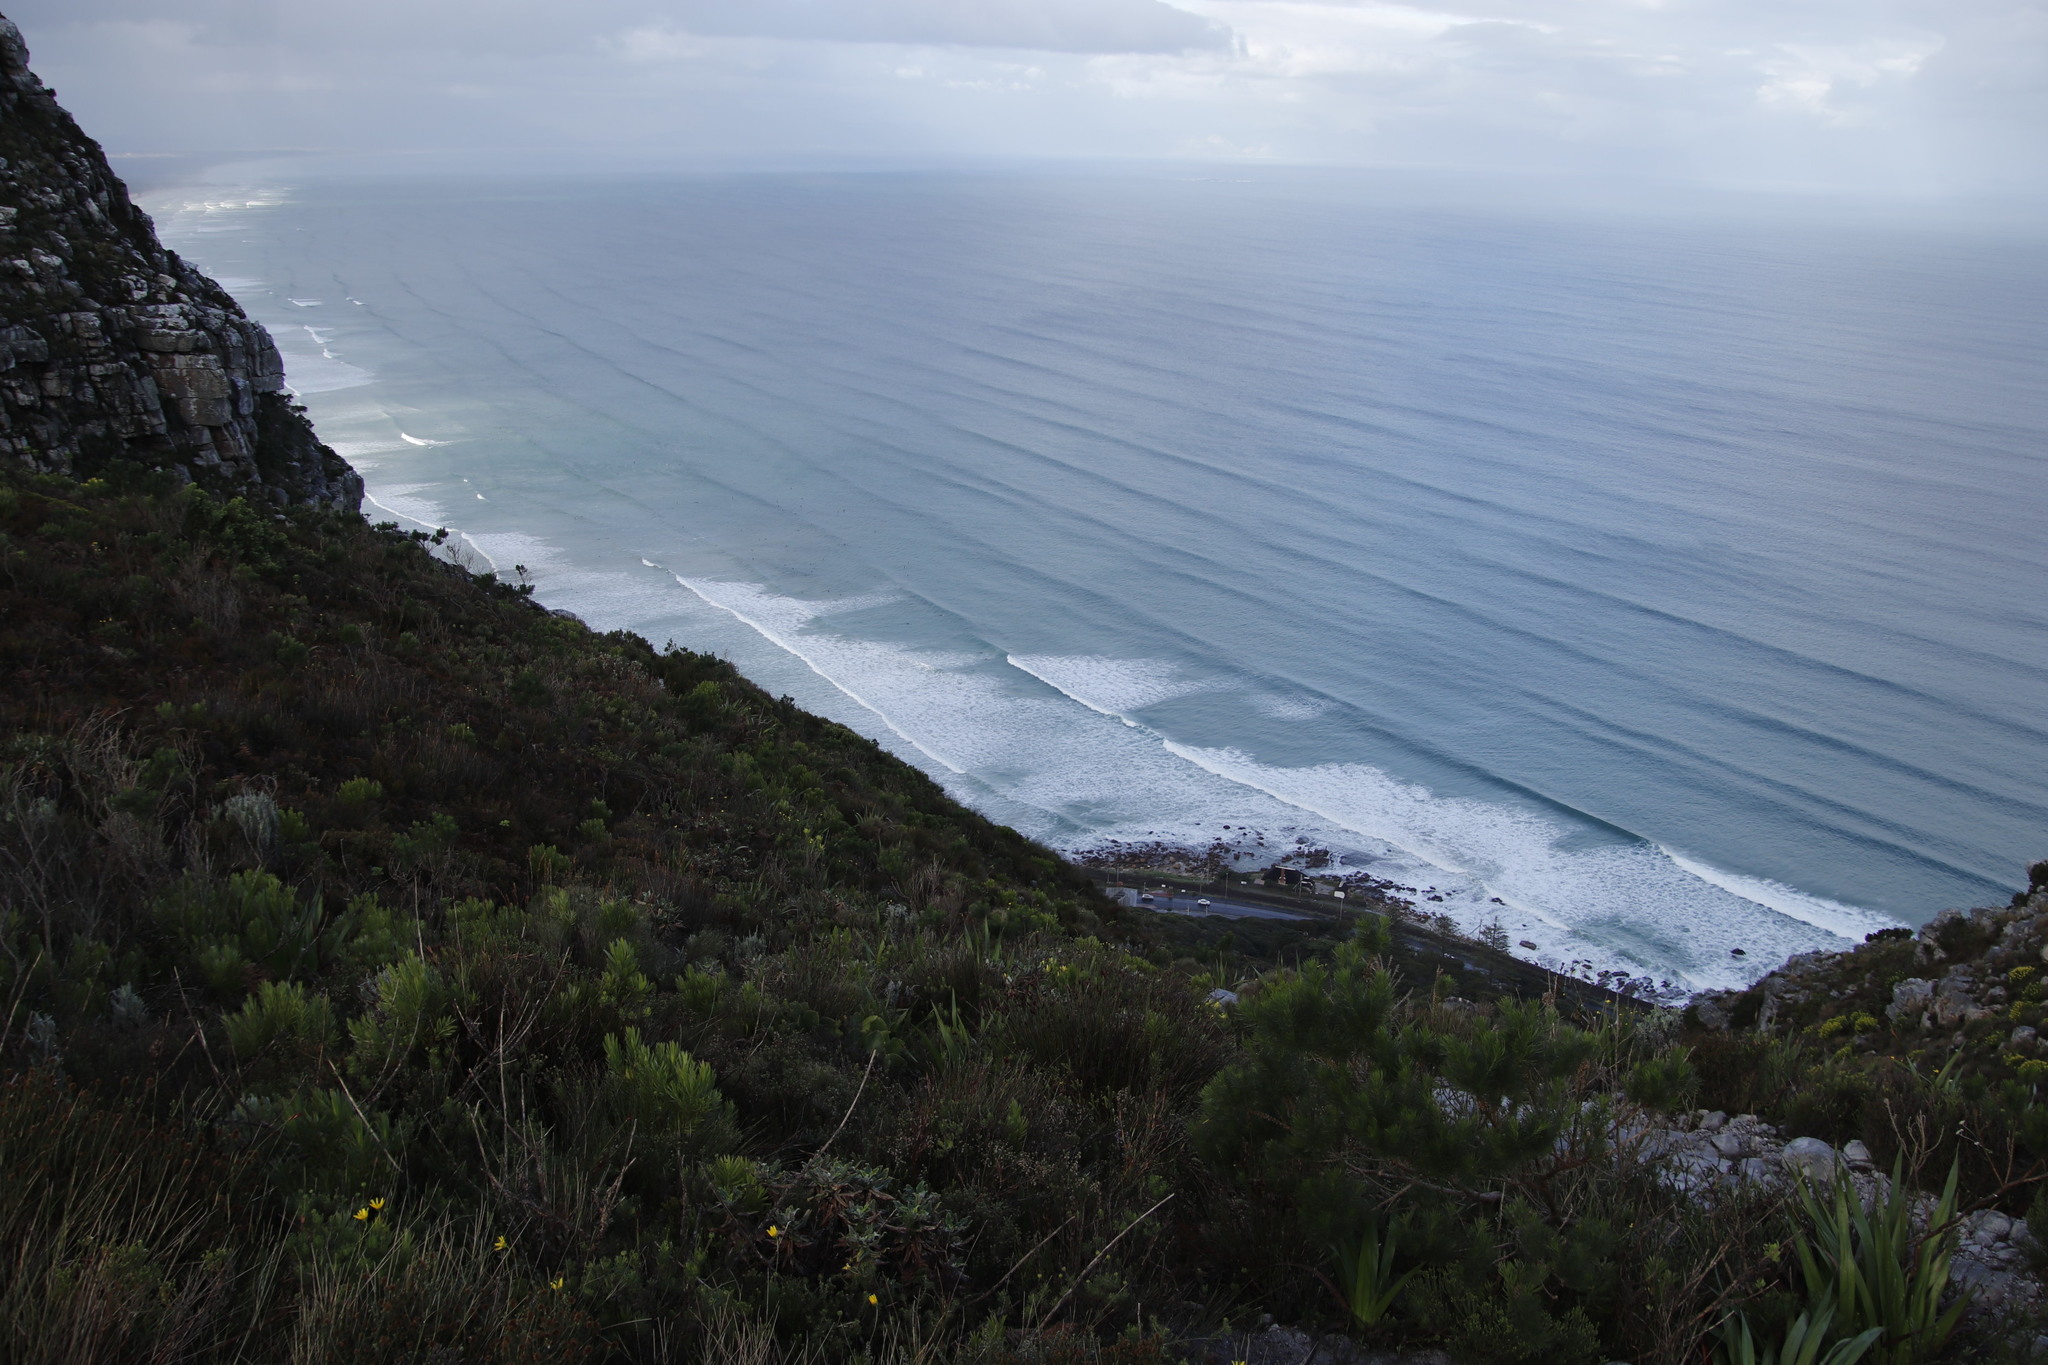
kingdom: Plantae
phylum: Tracheophyta
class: Magnoliopsida
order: Proteales
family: Proteaceae
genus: Leucadendron
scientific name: Leucadendron laureolum
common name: Golden sunshinebush
